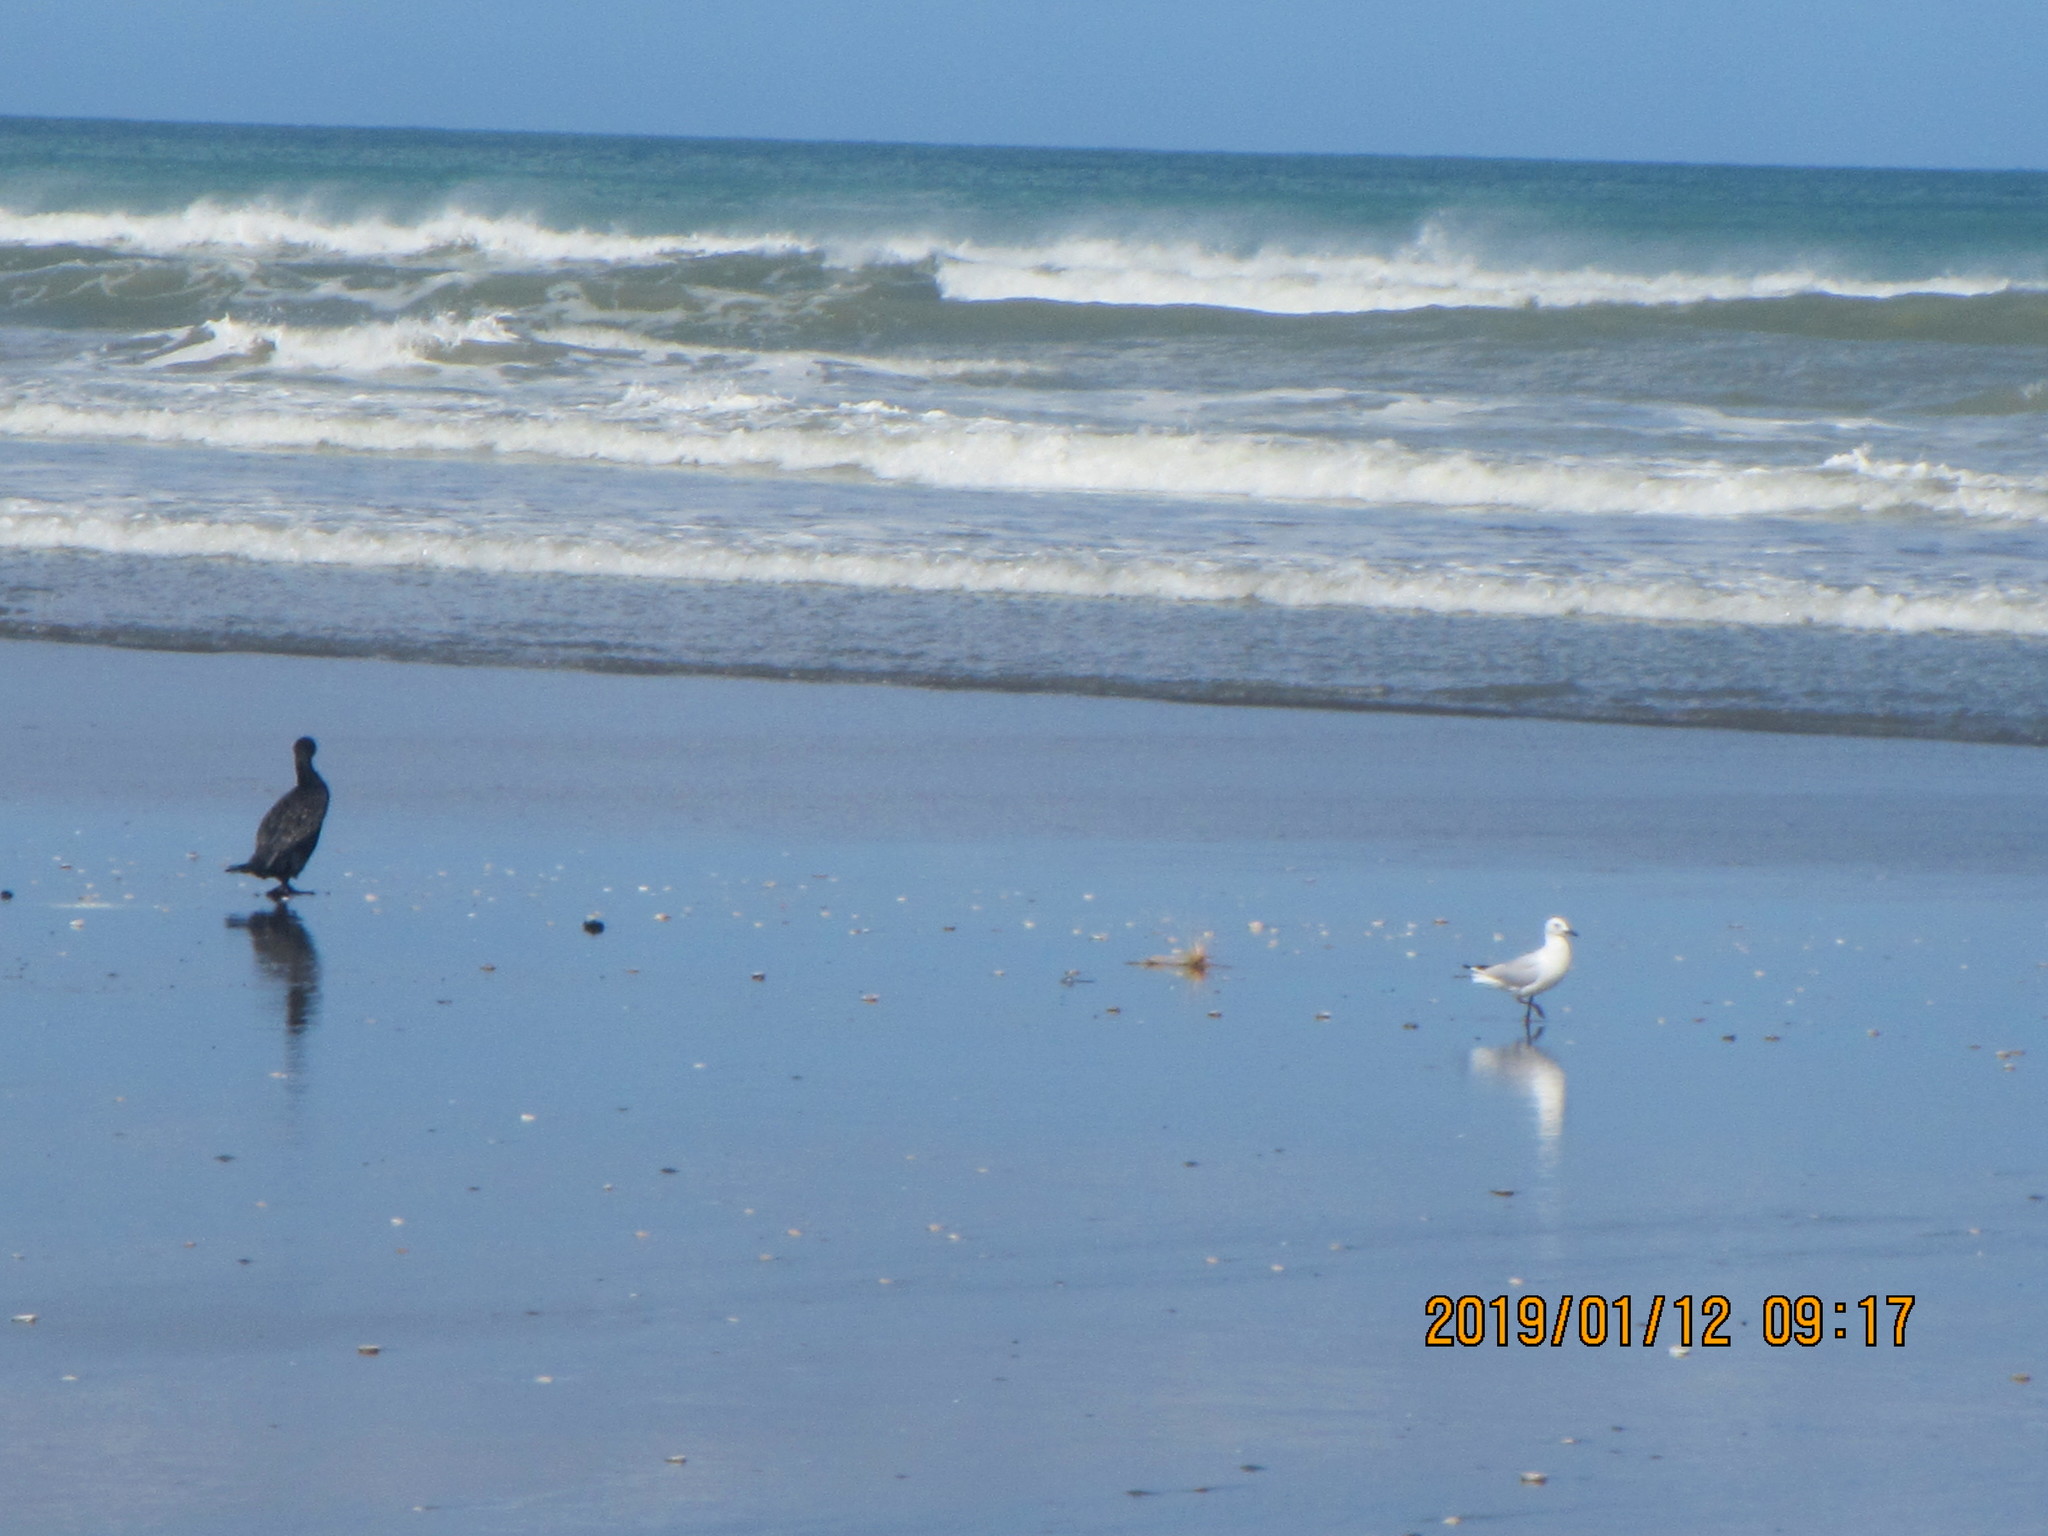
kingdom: Animalia
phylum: Chordata
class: Aves
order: Suliformes
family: Phalacrocoracidae
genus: Phalacrocorax
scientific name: Phalacrocorax carbo
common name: Great cormorant
